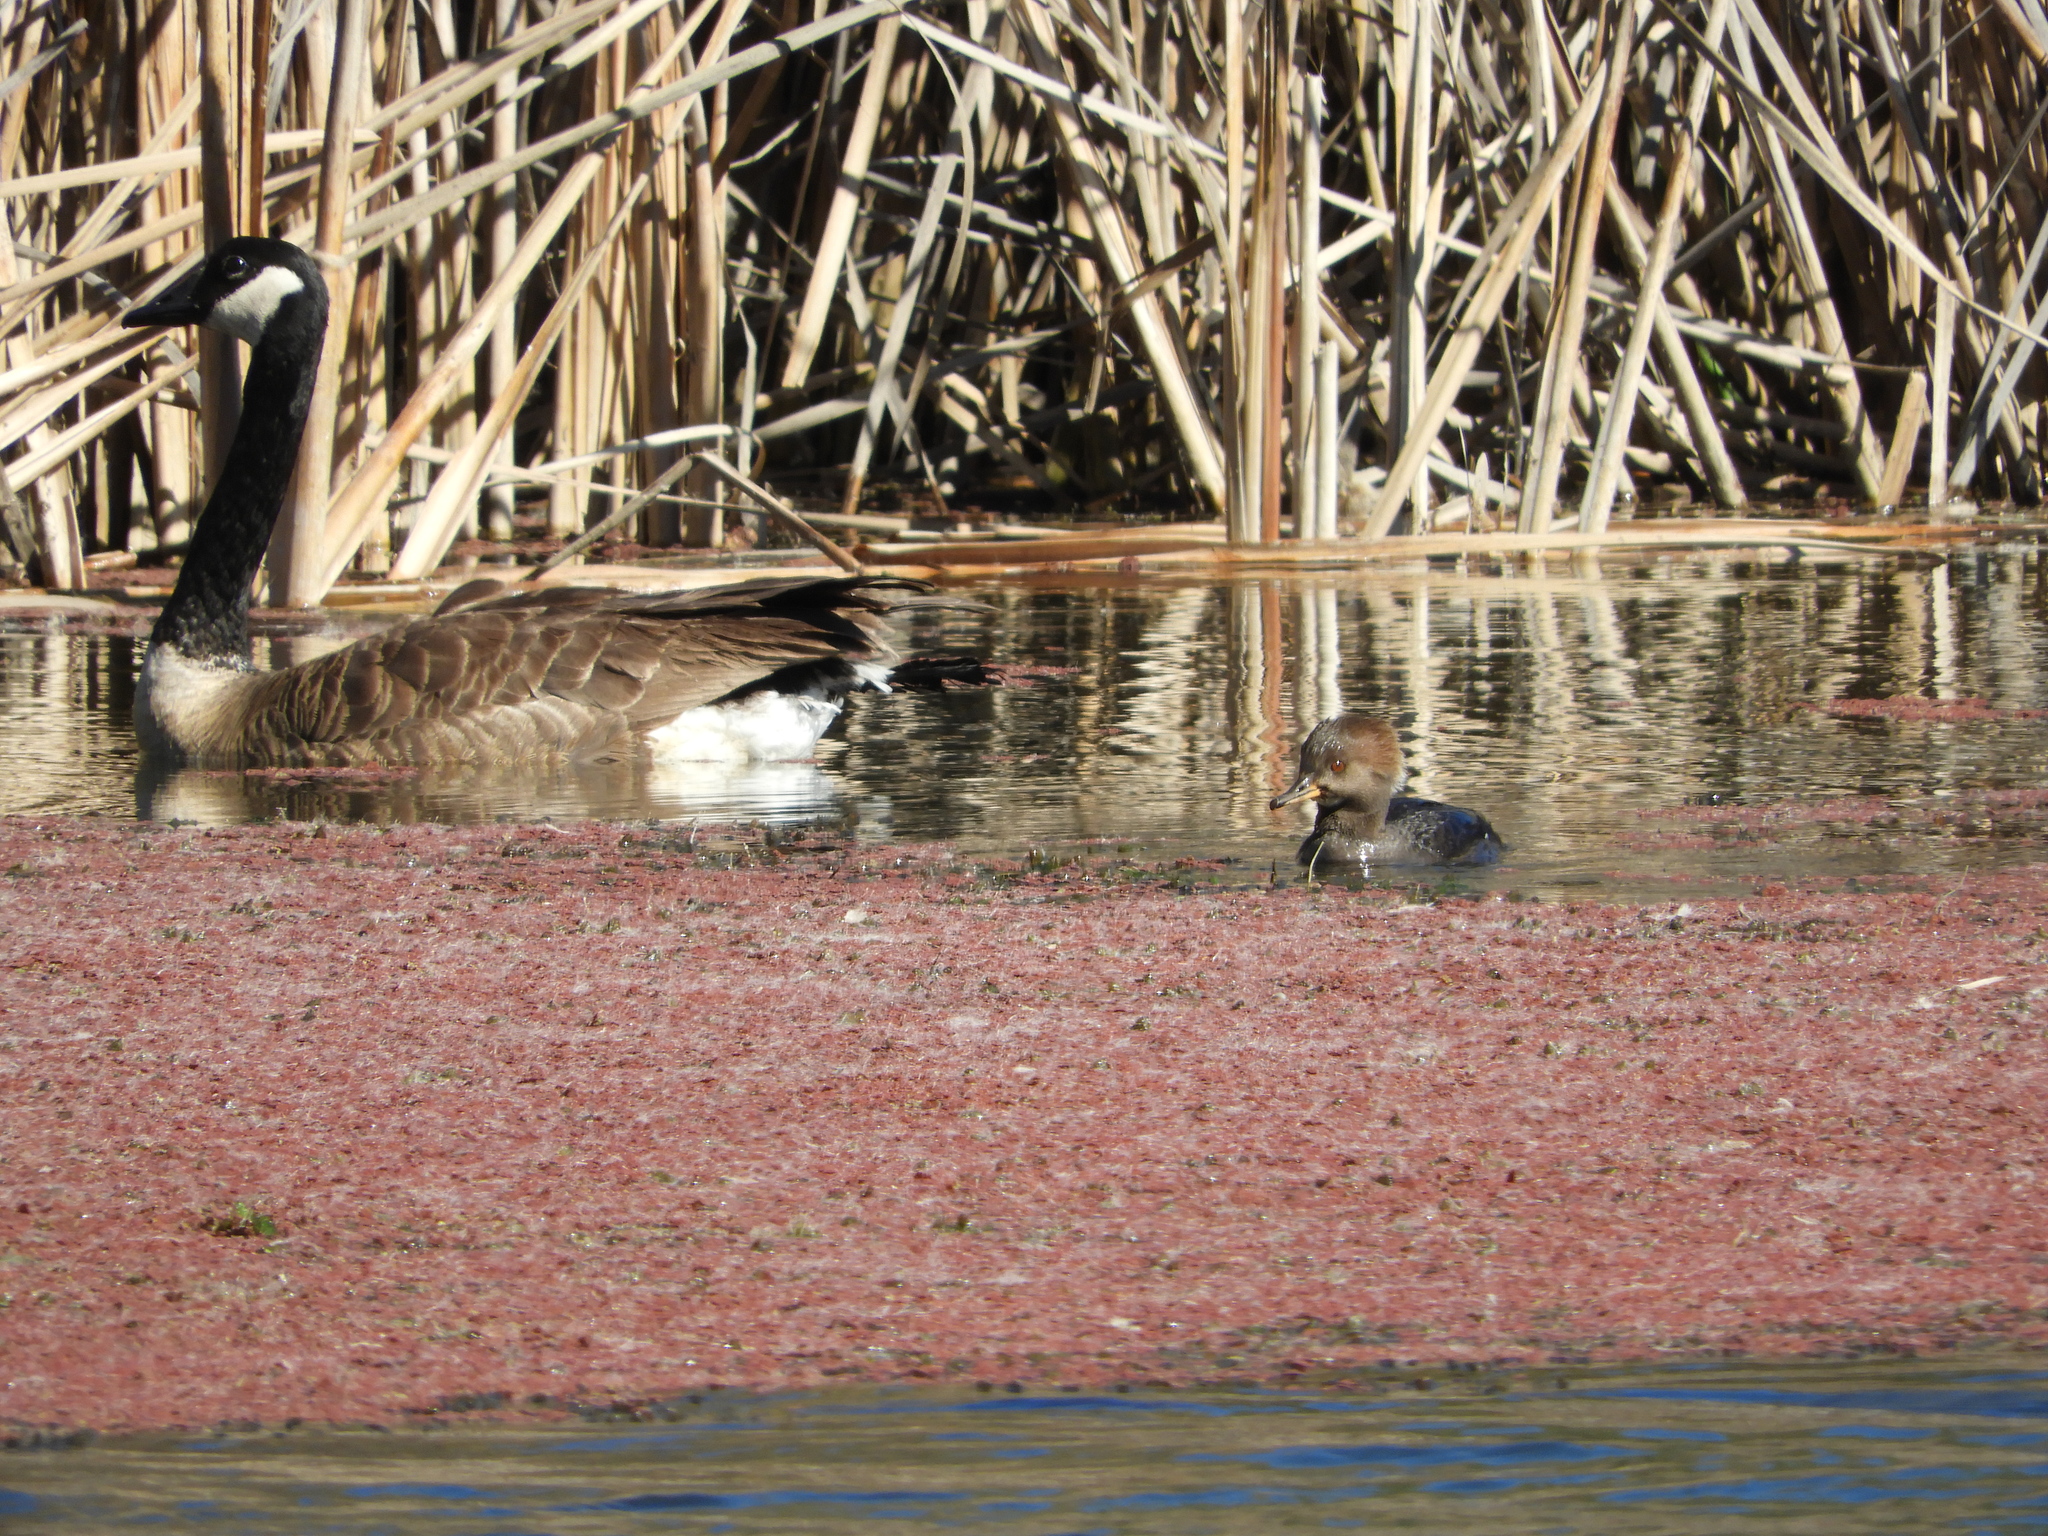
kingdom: Animalia
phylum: Chordata
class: Aves
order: Anseriformes
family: Anatidae
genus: Branta
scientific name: Branta canadensis
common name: Canada goose
